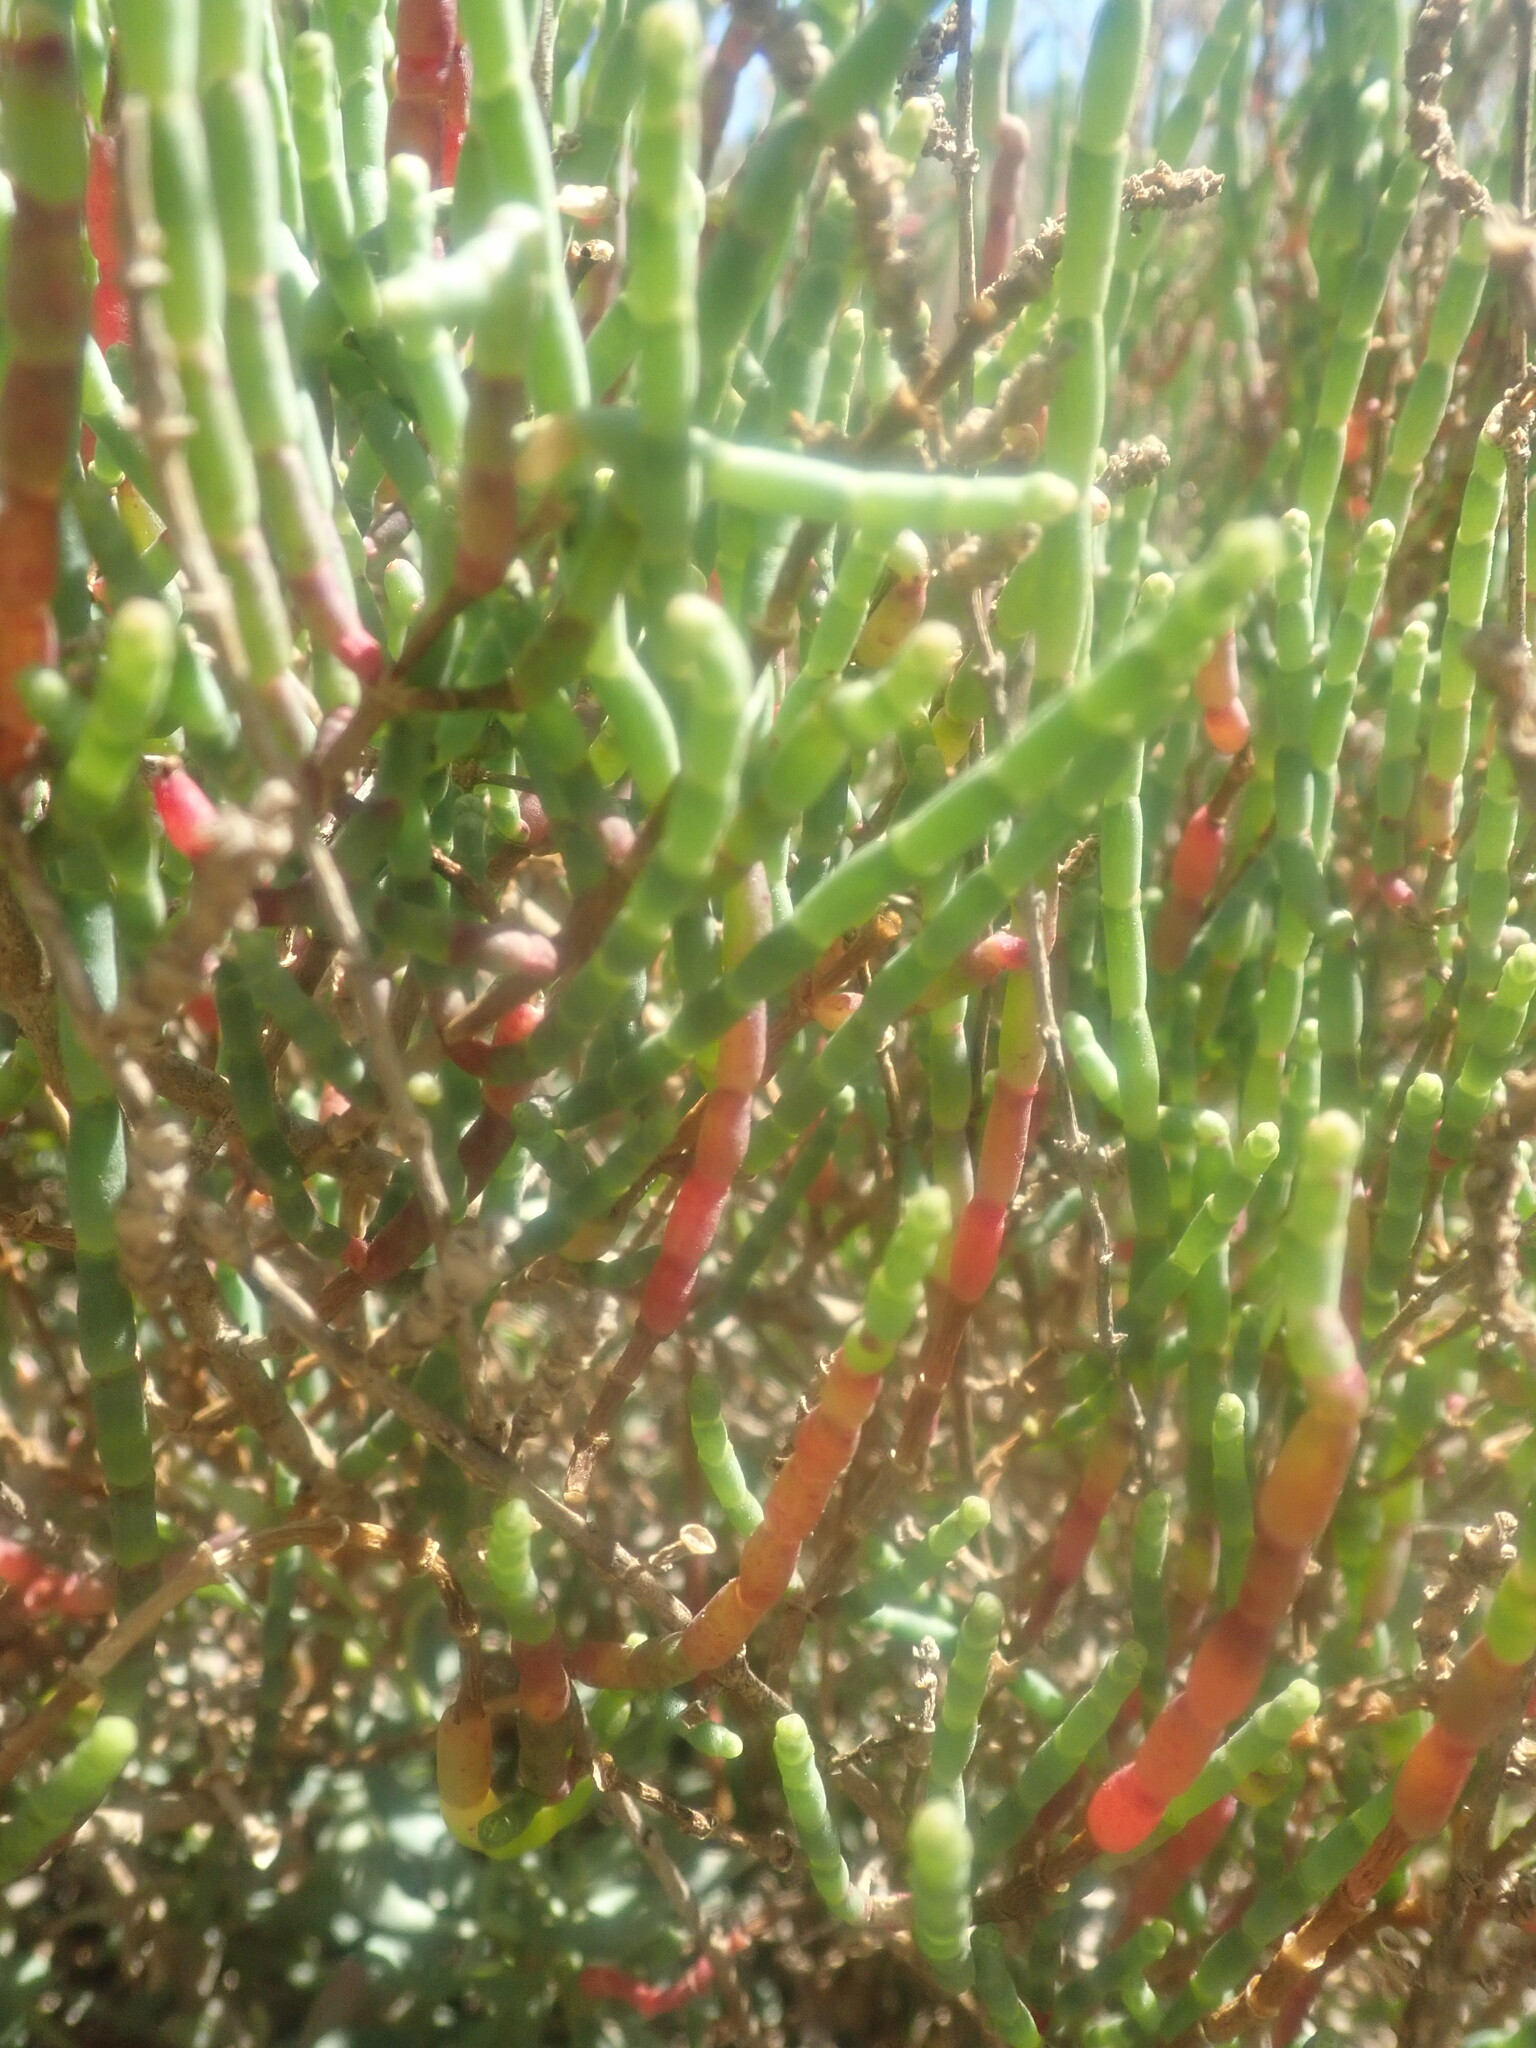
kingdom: Plantae
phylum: Tracheophyta
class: Magnoliopsida
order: Caryophyllales
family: Amaranthaceae
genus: Salicornia
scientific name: Salicornia fruticosa
